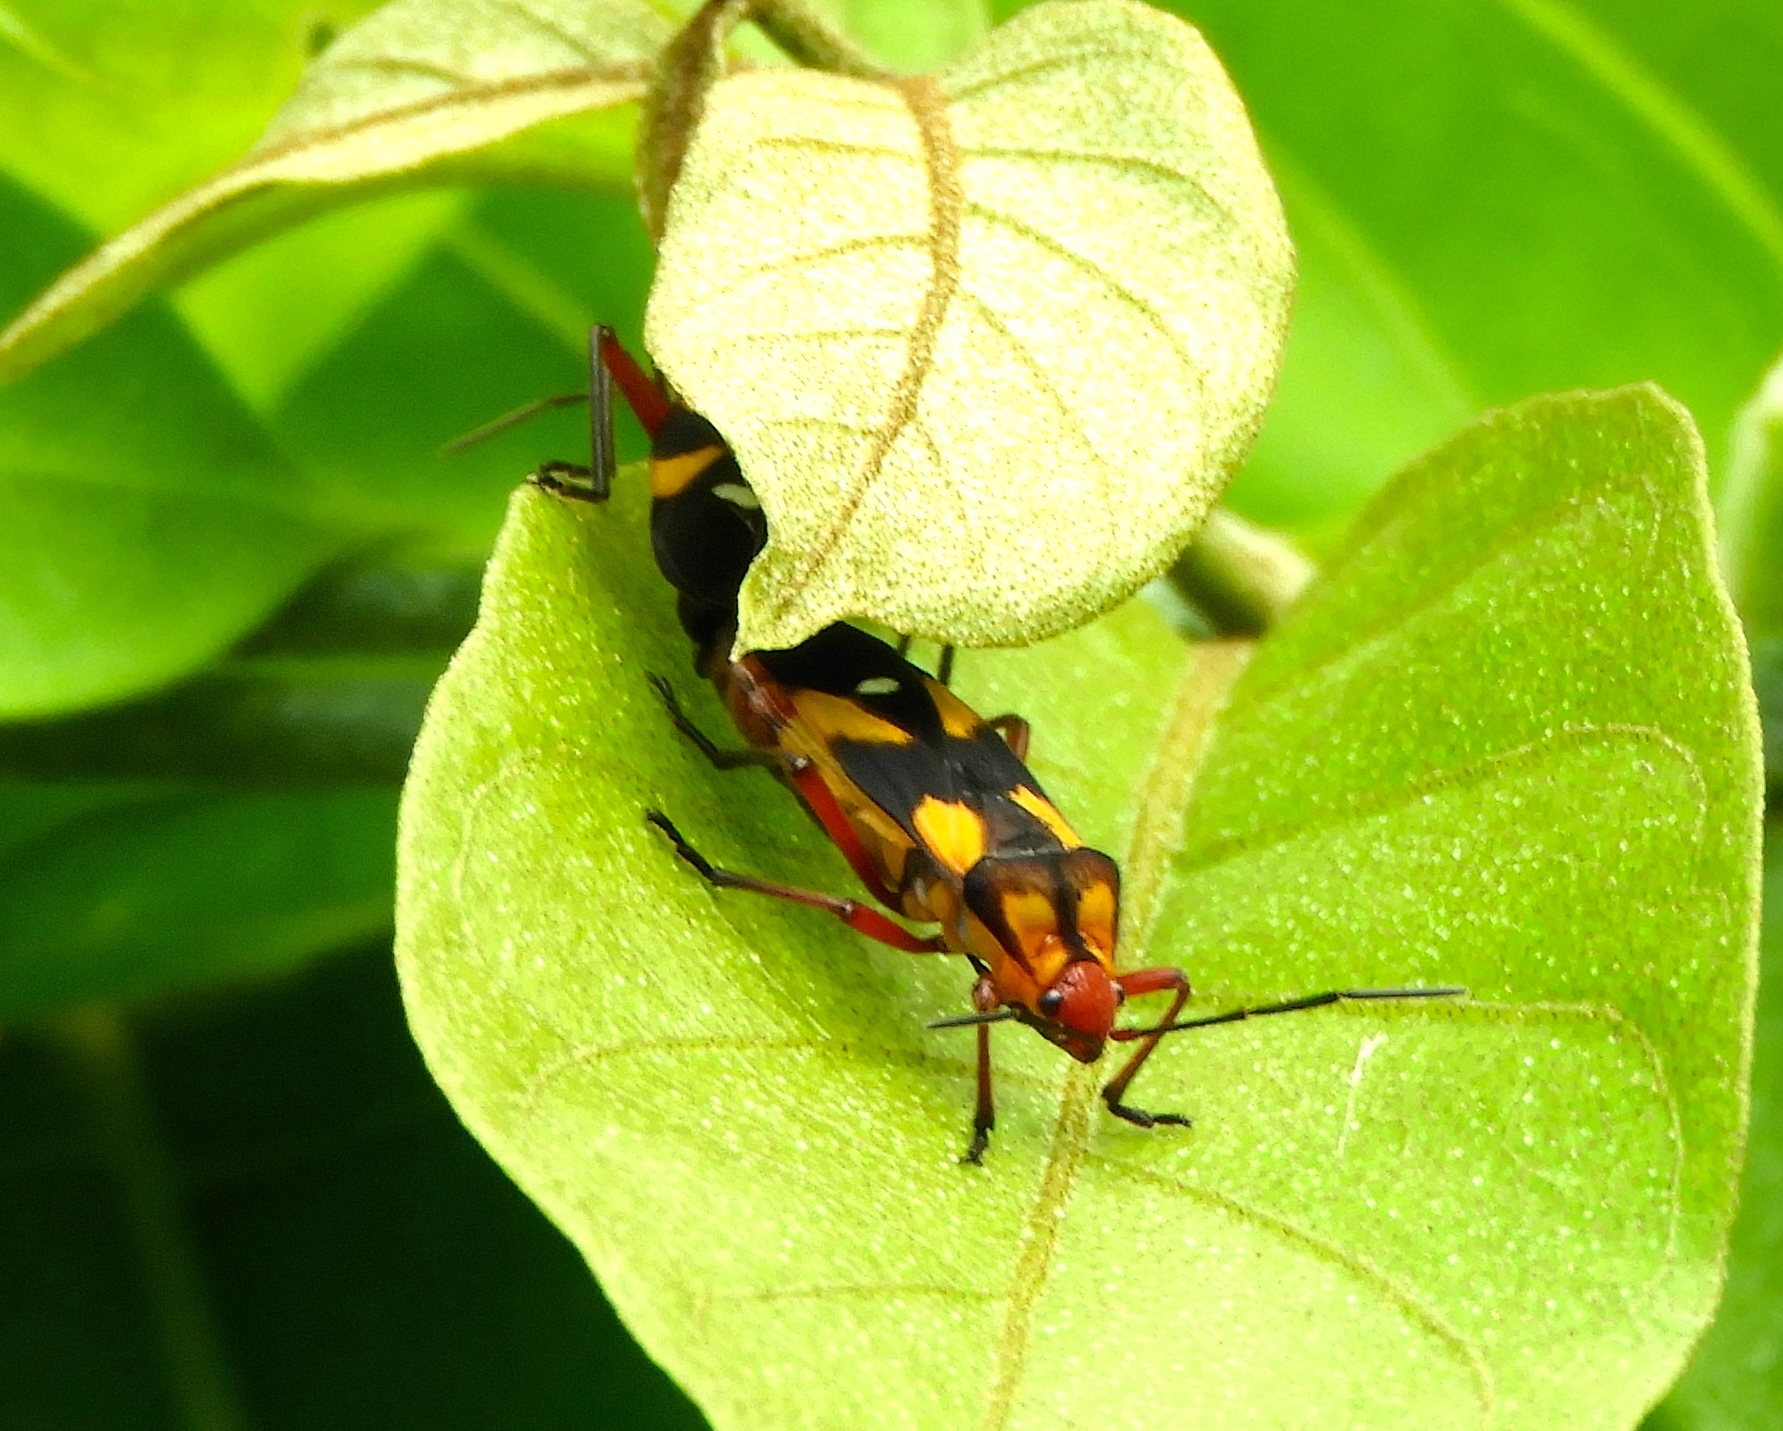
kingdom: Animalia
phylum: Arthropoda
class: Insecta
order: Hemiptera
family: Lygaeidae
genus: Oncopeltus
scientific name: Oncopeltus guttaloides
